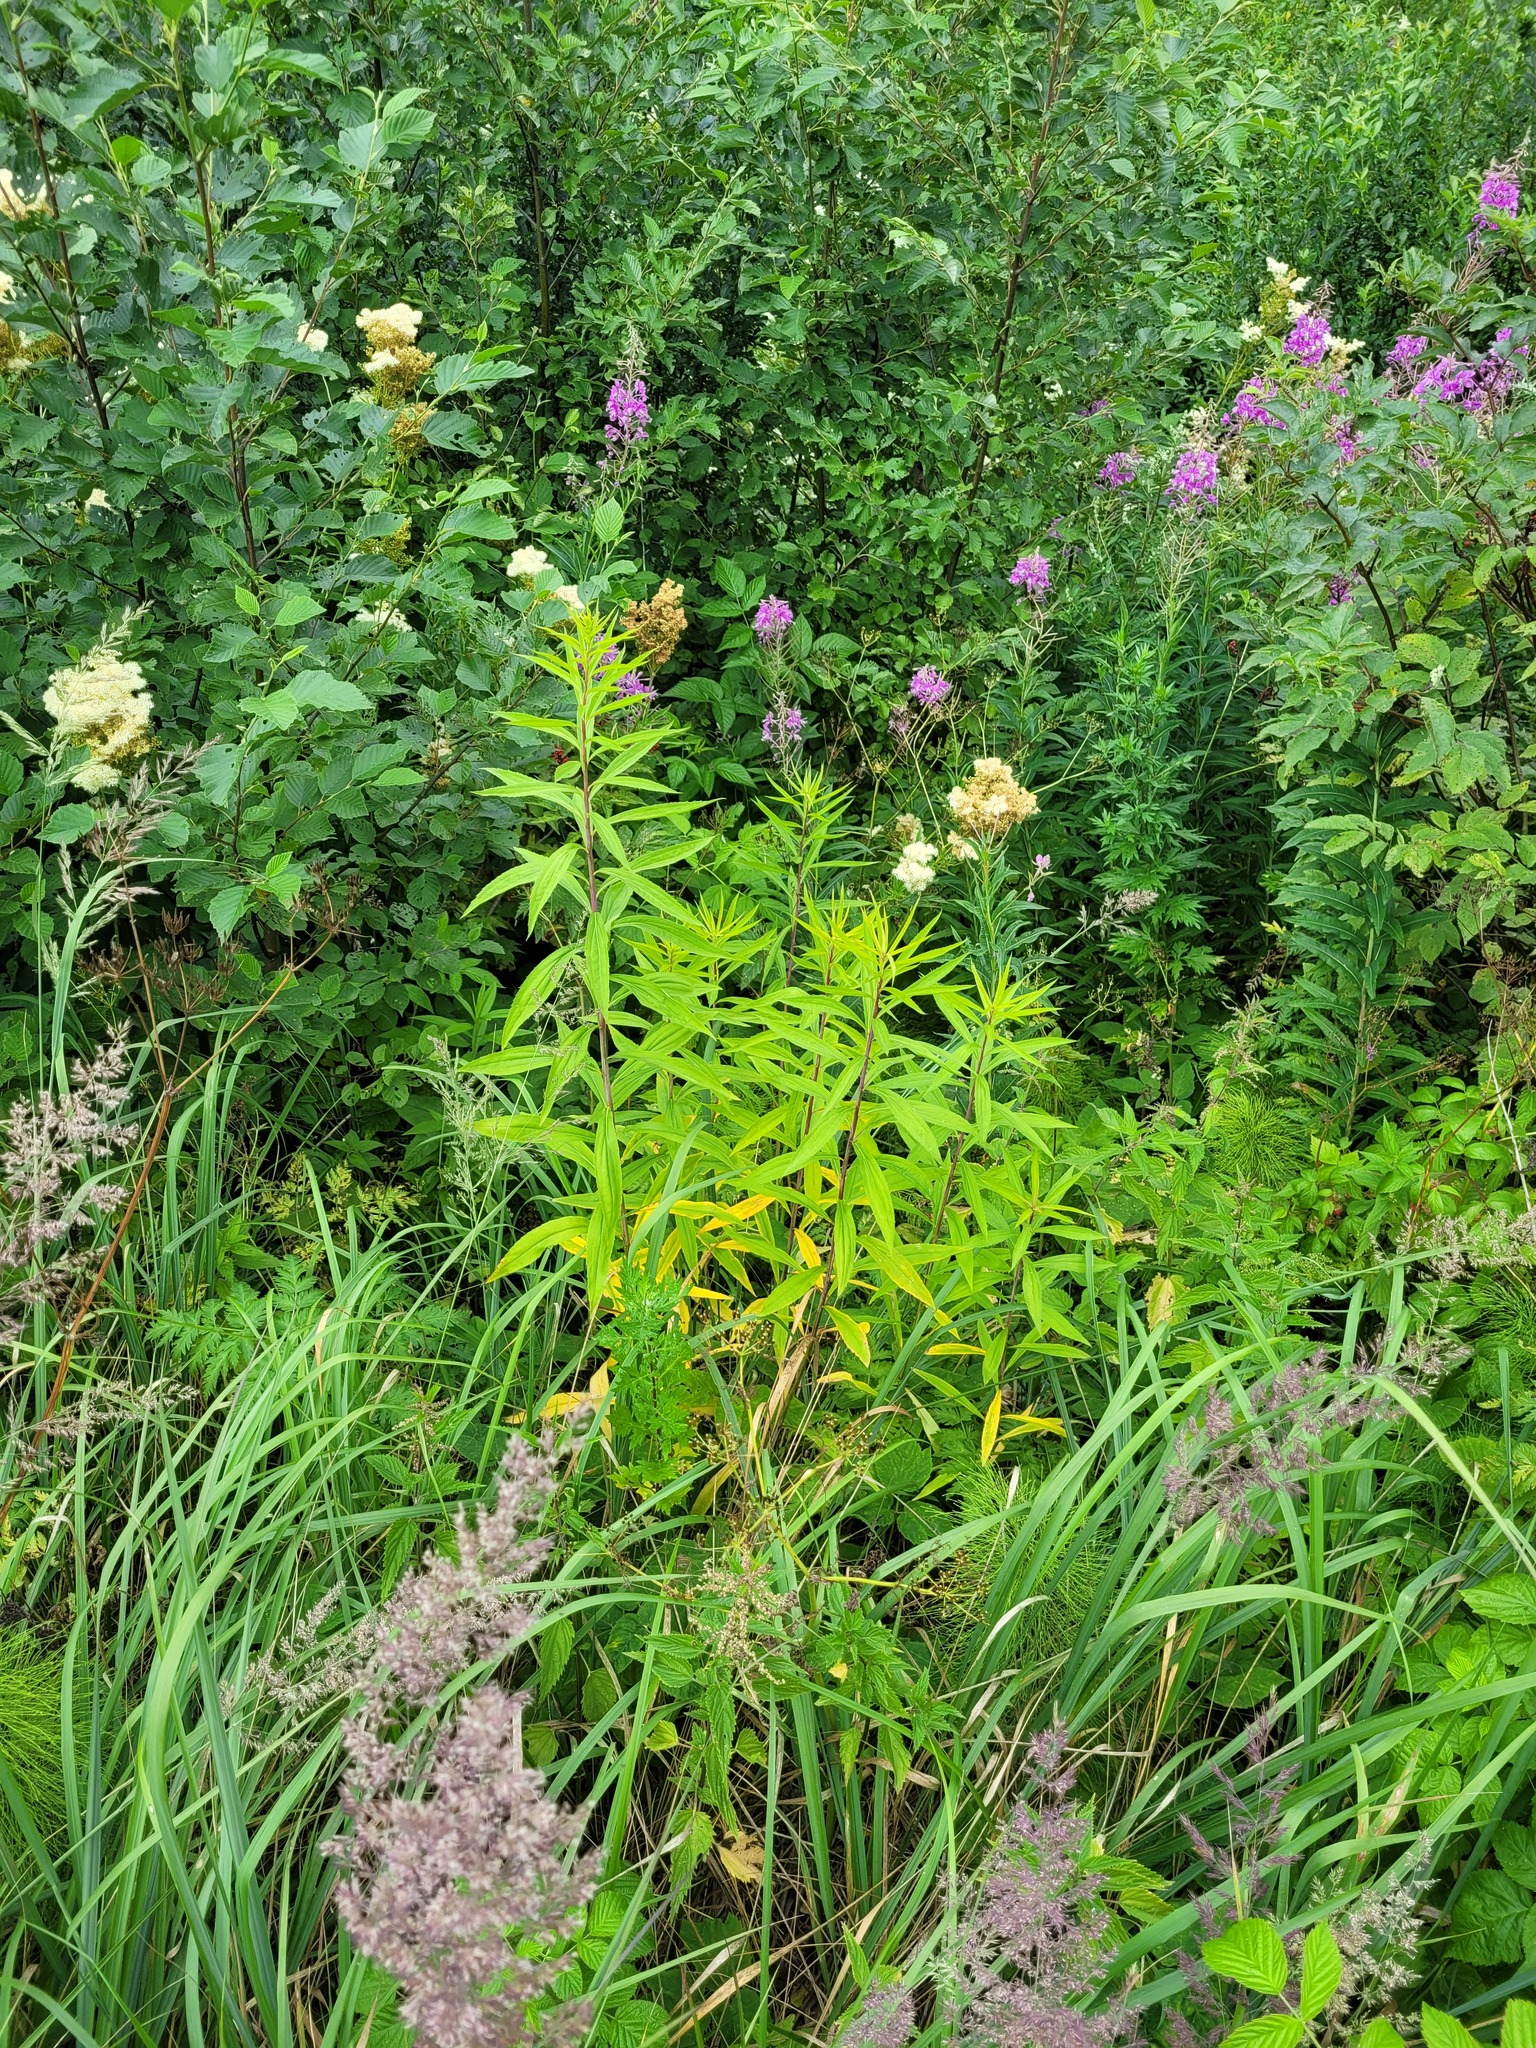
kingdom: Plantae
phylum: Tracheophyta
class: Magnoliopsida
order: Asterales
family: Asteraceae
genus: Solidago
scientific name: Solidago gigantea
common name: Giant goldenrod
